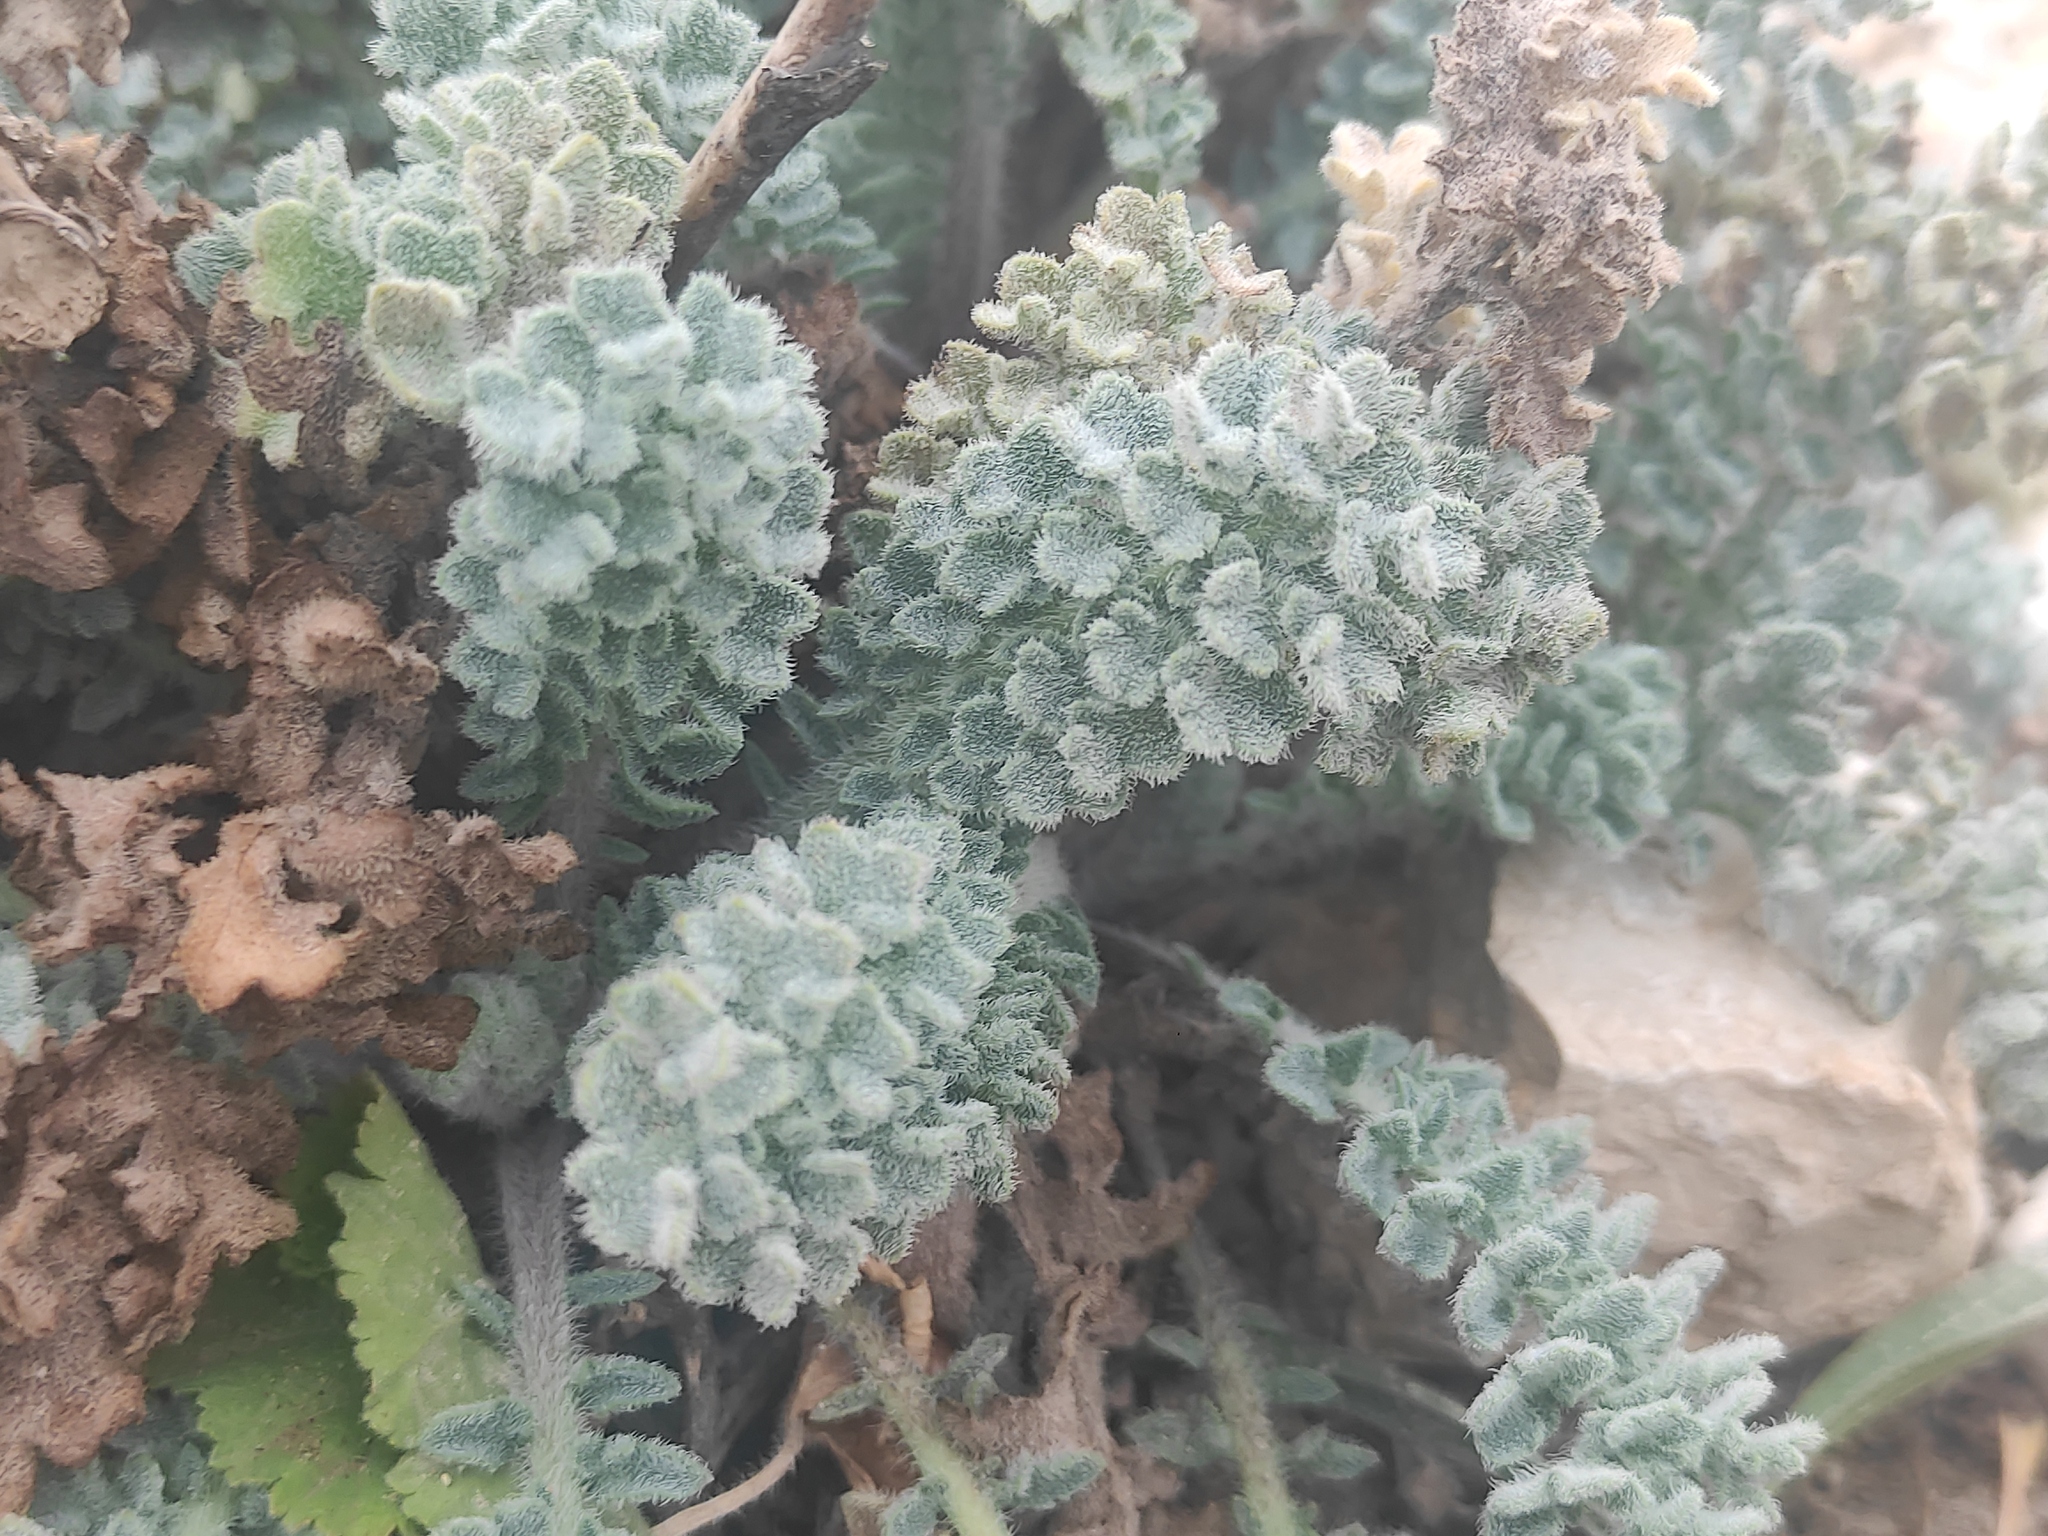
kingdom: Plantae
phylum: Tracheophyta
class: Magnoliopsida
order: Ranunculales
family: Papaveraceae
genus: Glaucium
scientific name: Glaucium flavum
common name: Yellow horned-poppy
